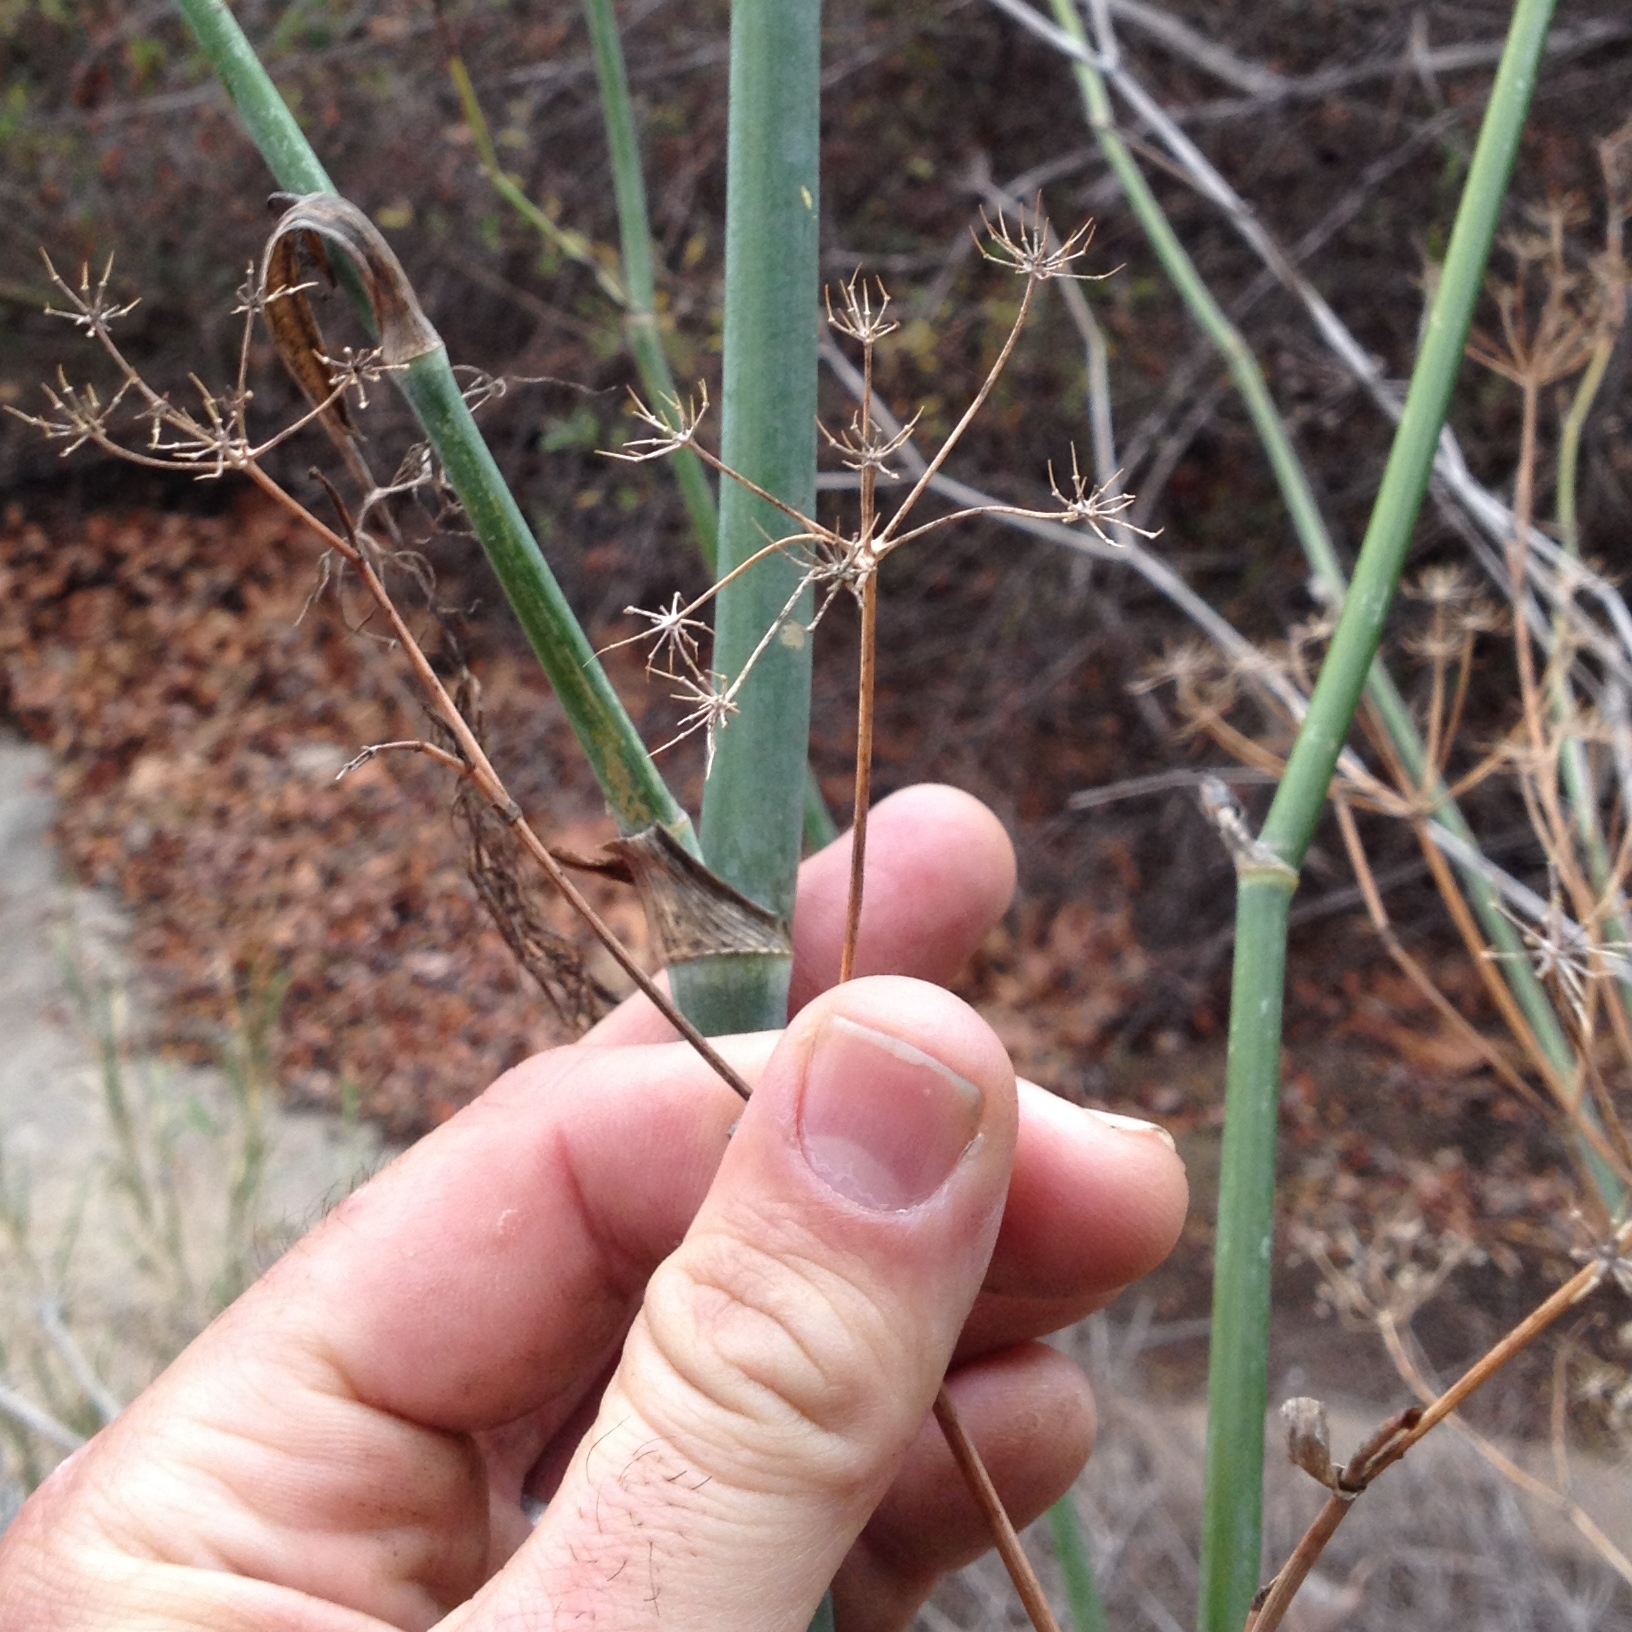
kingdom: Plantae
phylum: Tracheophyta
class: Magnoliopsida
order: Apiales
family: Apiaceae
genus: Foeniculum
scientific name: Foeniculum vulgare
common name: Fennel
